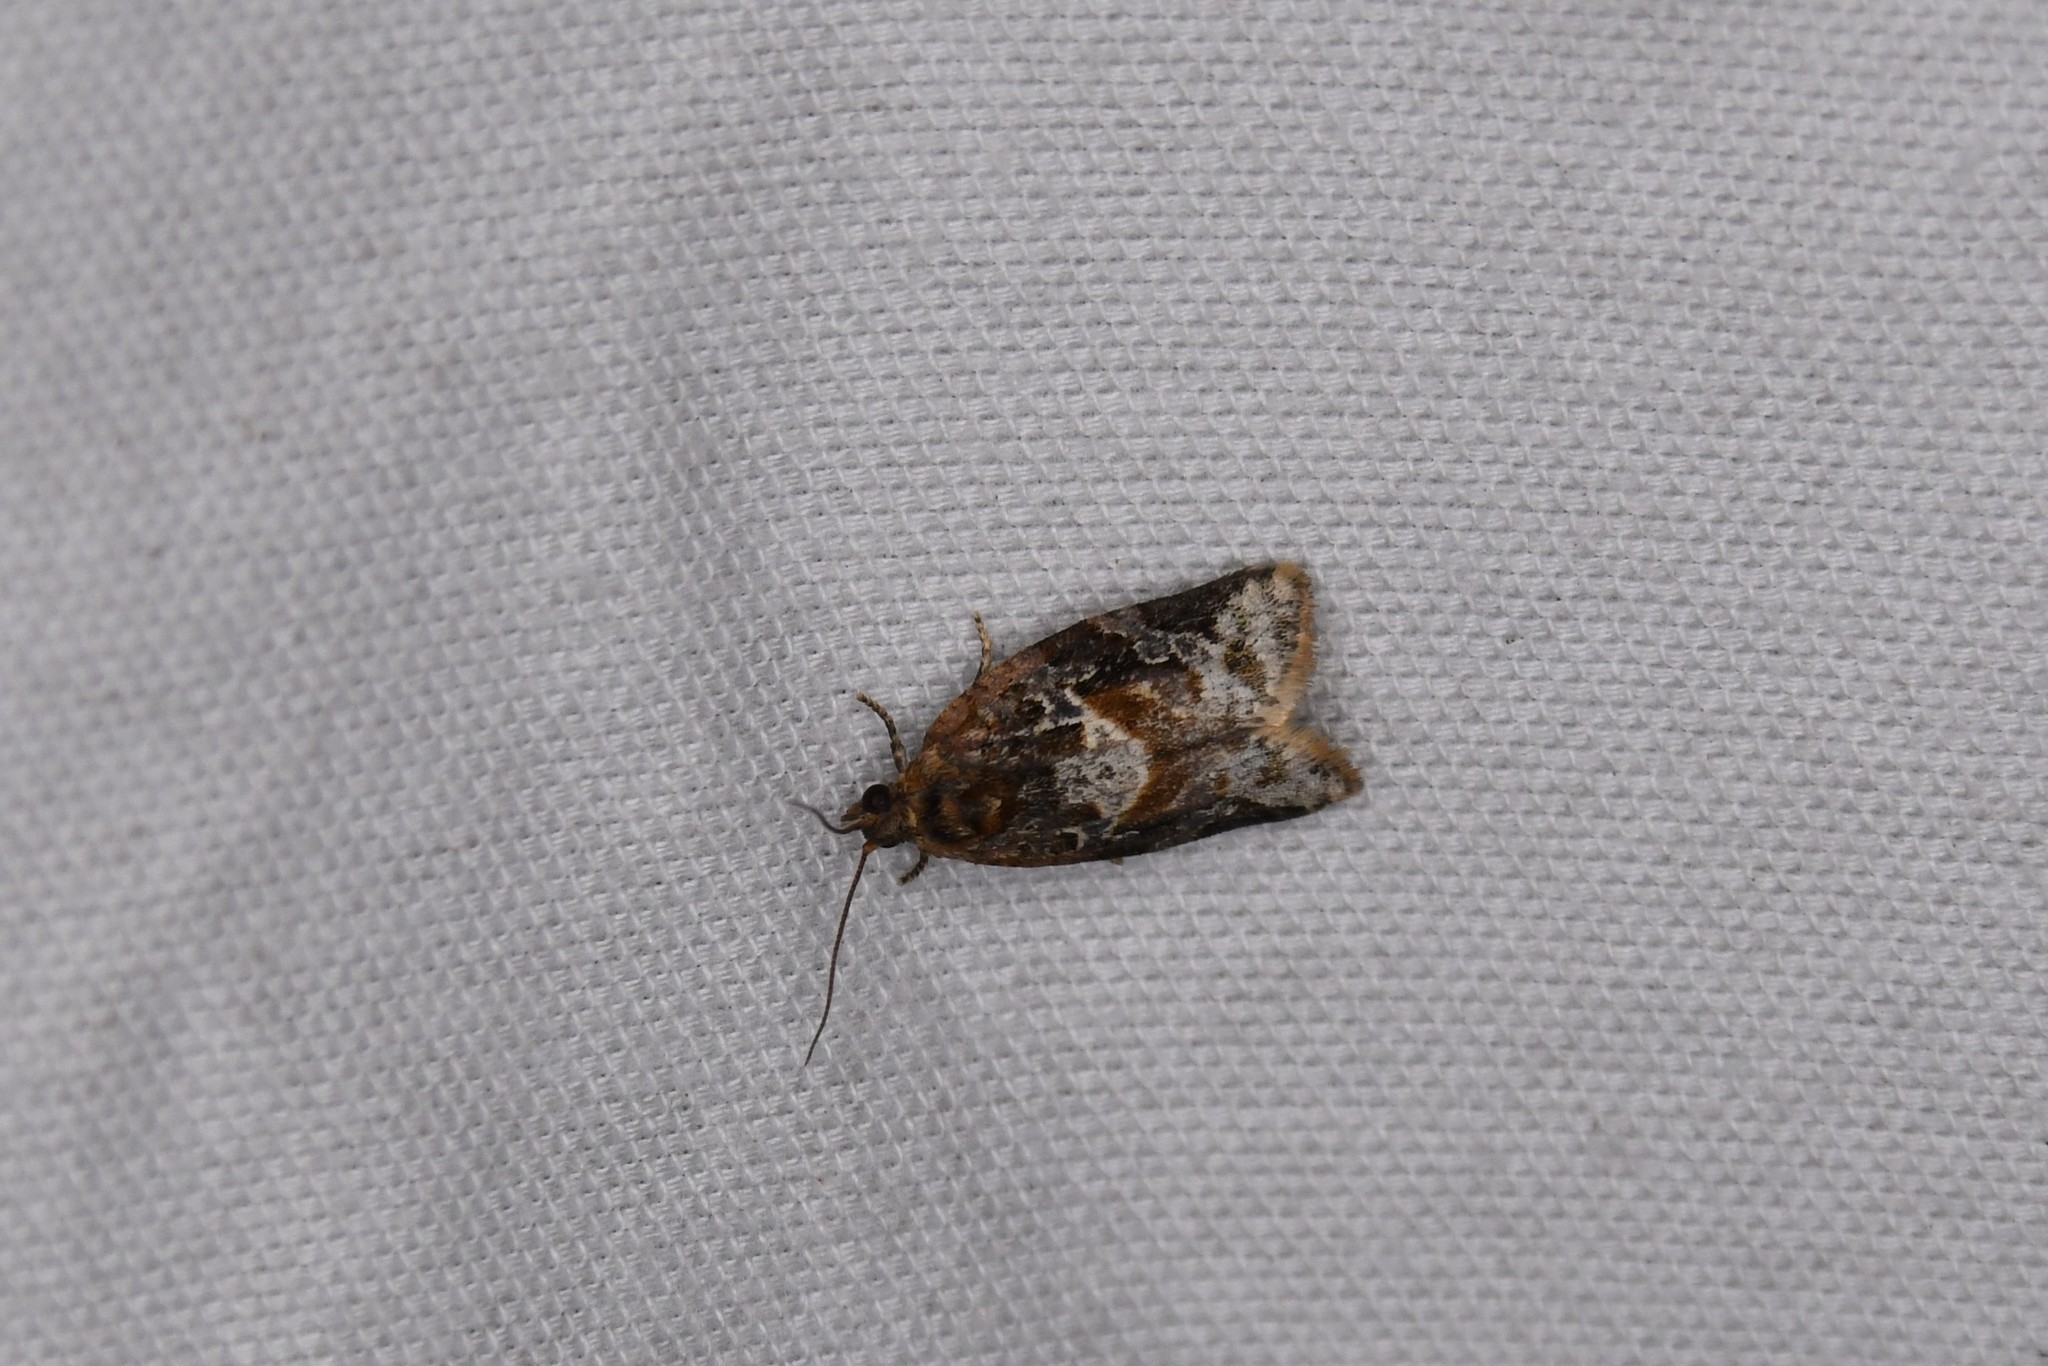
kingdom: Animalia
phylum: Arthropoda
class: Insecta
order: Lepidoptera
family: Tortricidae
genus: Argyrotaenia
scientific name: Argyrotaenia velutinana
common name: Red-banded leafroller moth
